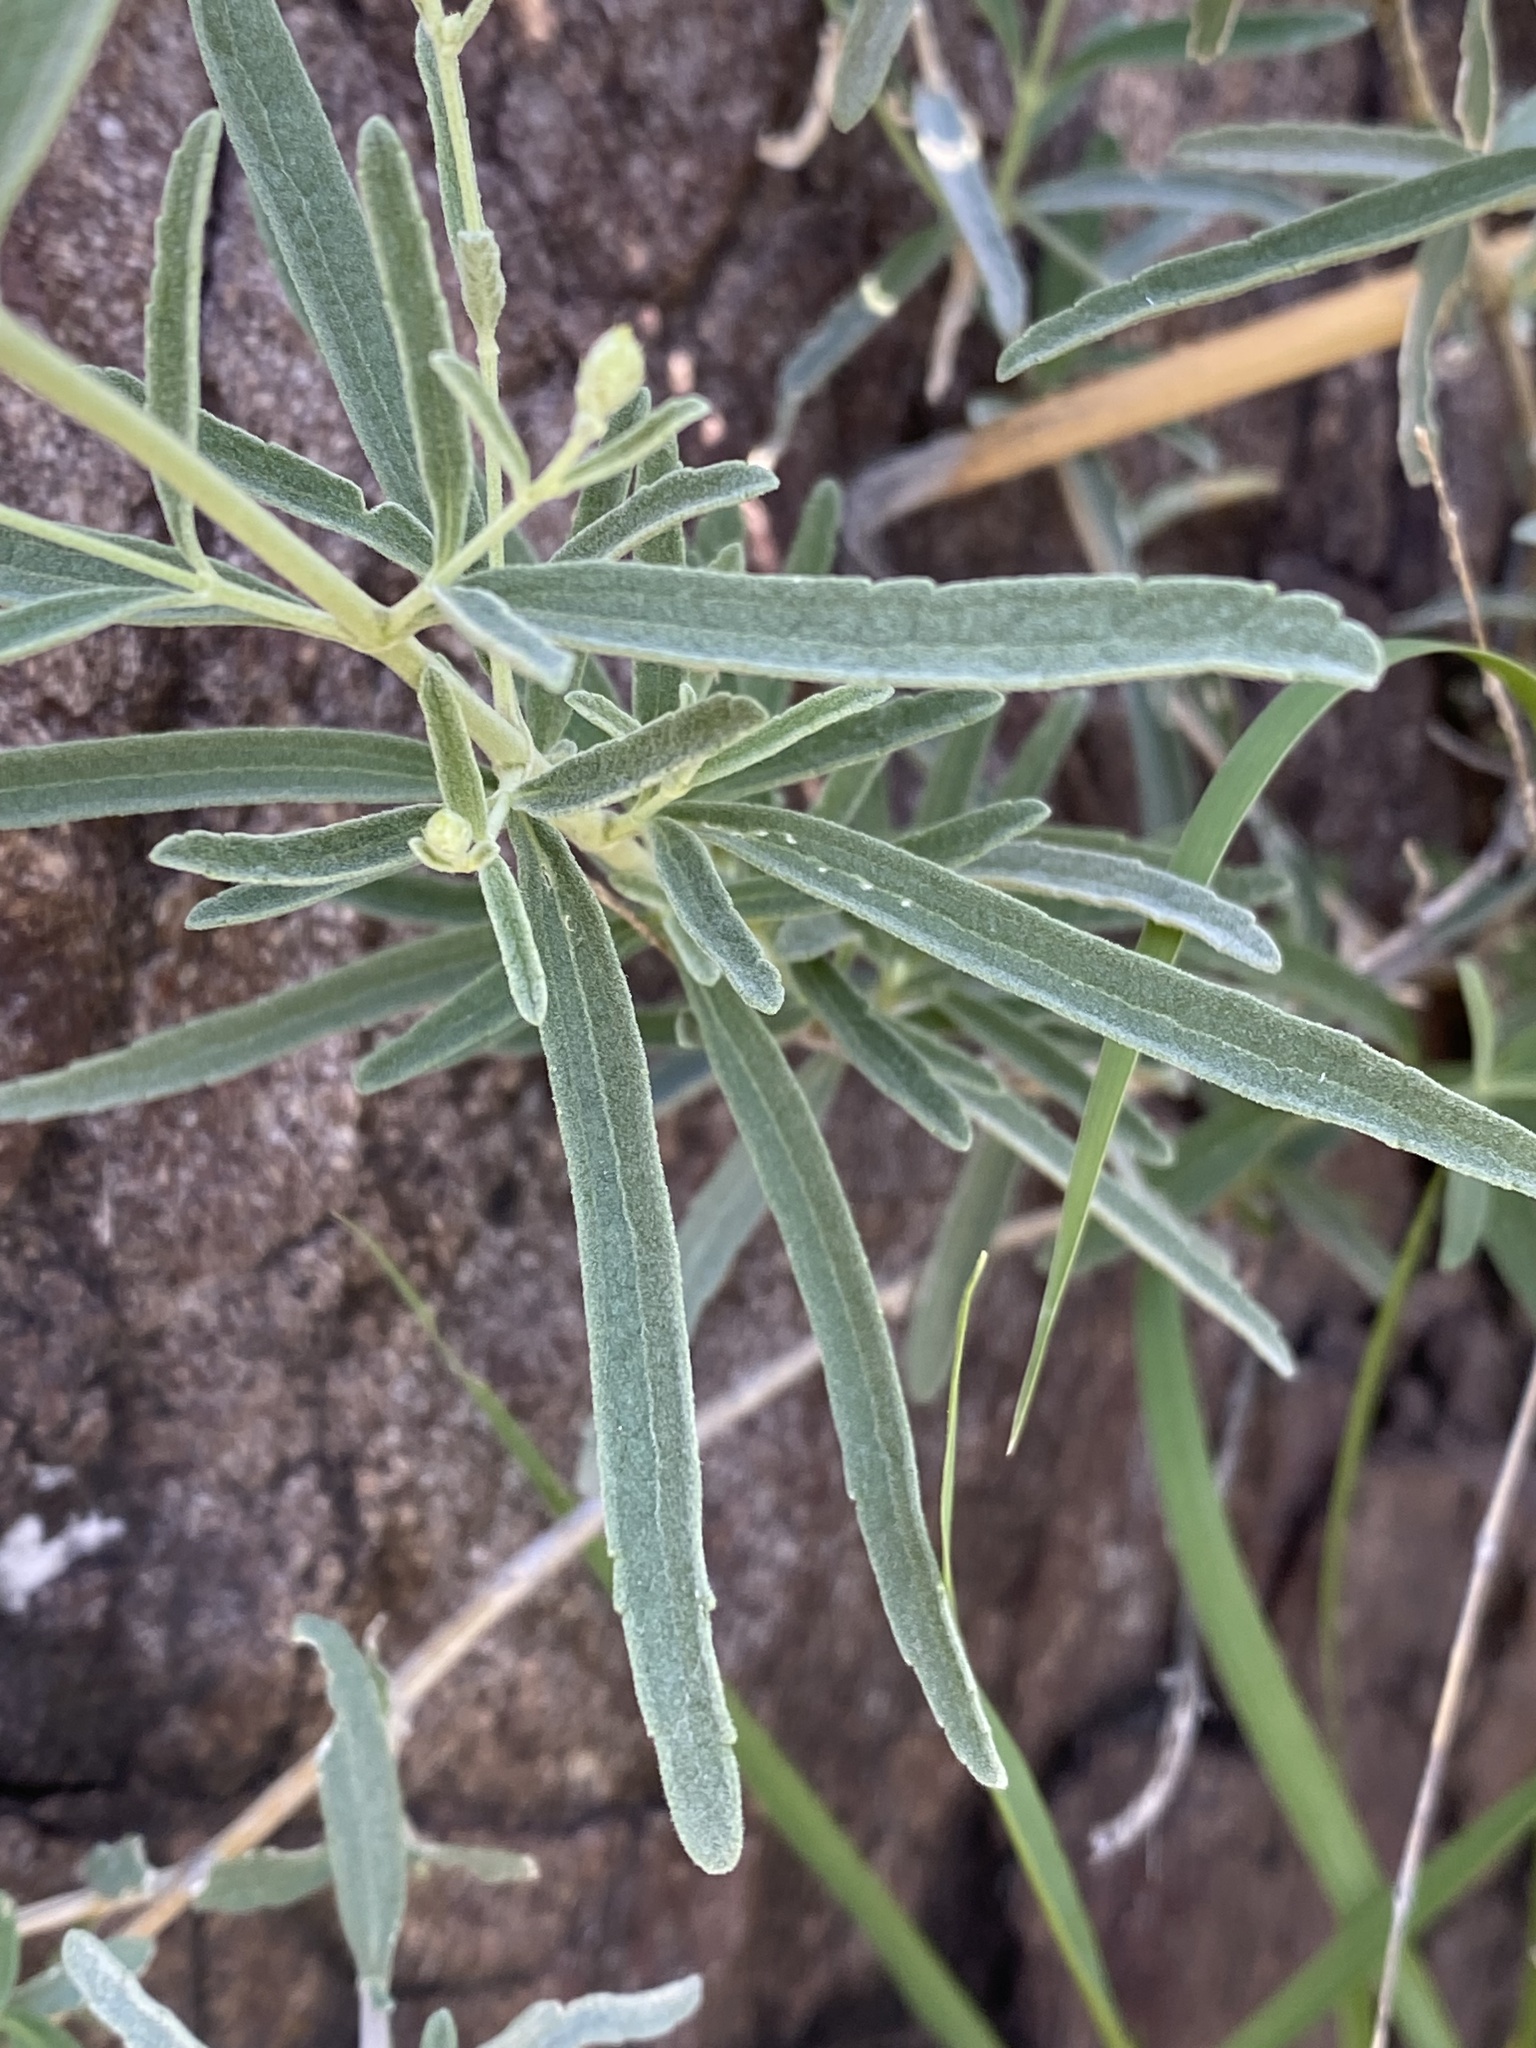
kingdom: Plantae
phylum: Tracheophyta
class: Magnoliopsida
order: Asterales
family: Asteraceae
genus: Brickellia
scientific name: Brickellia venosa
